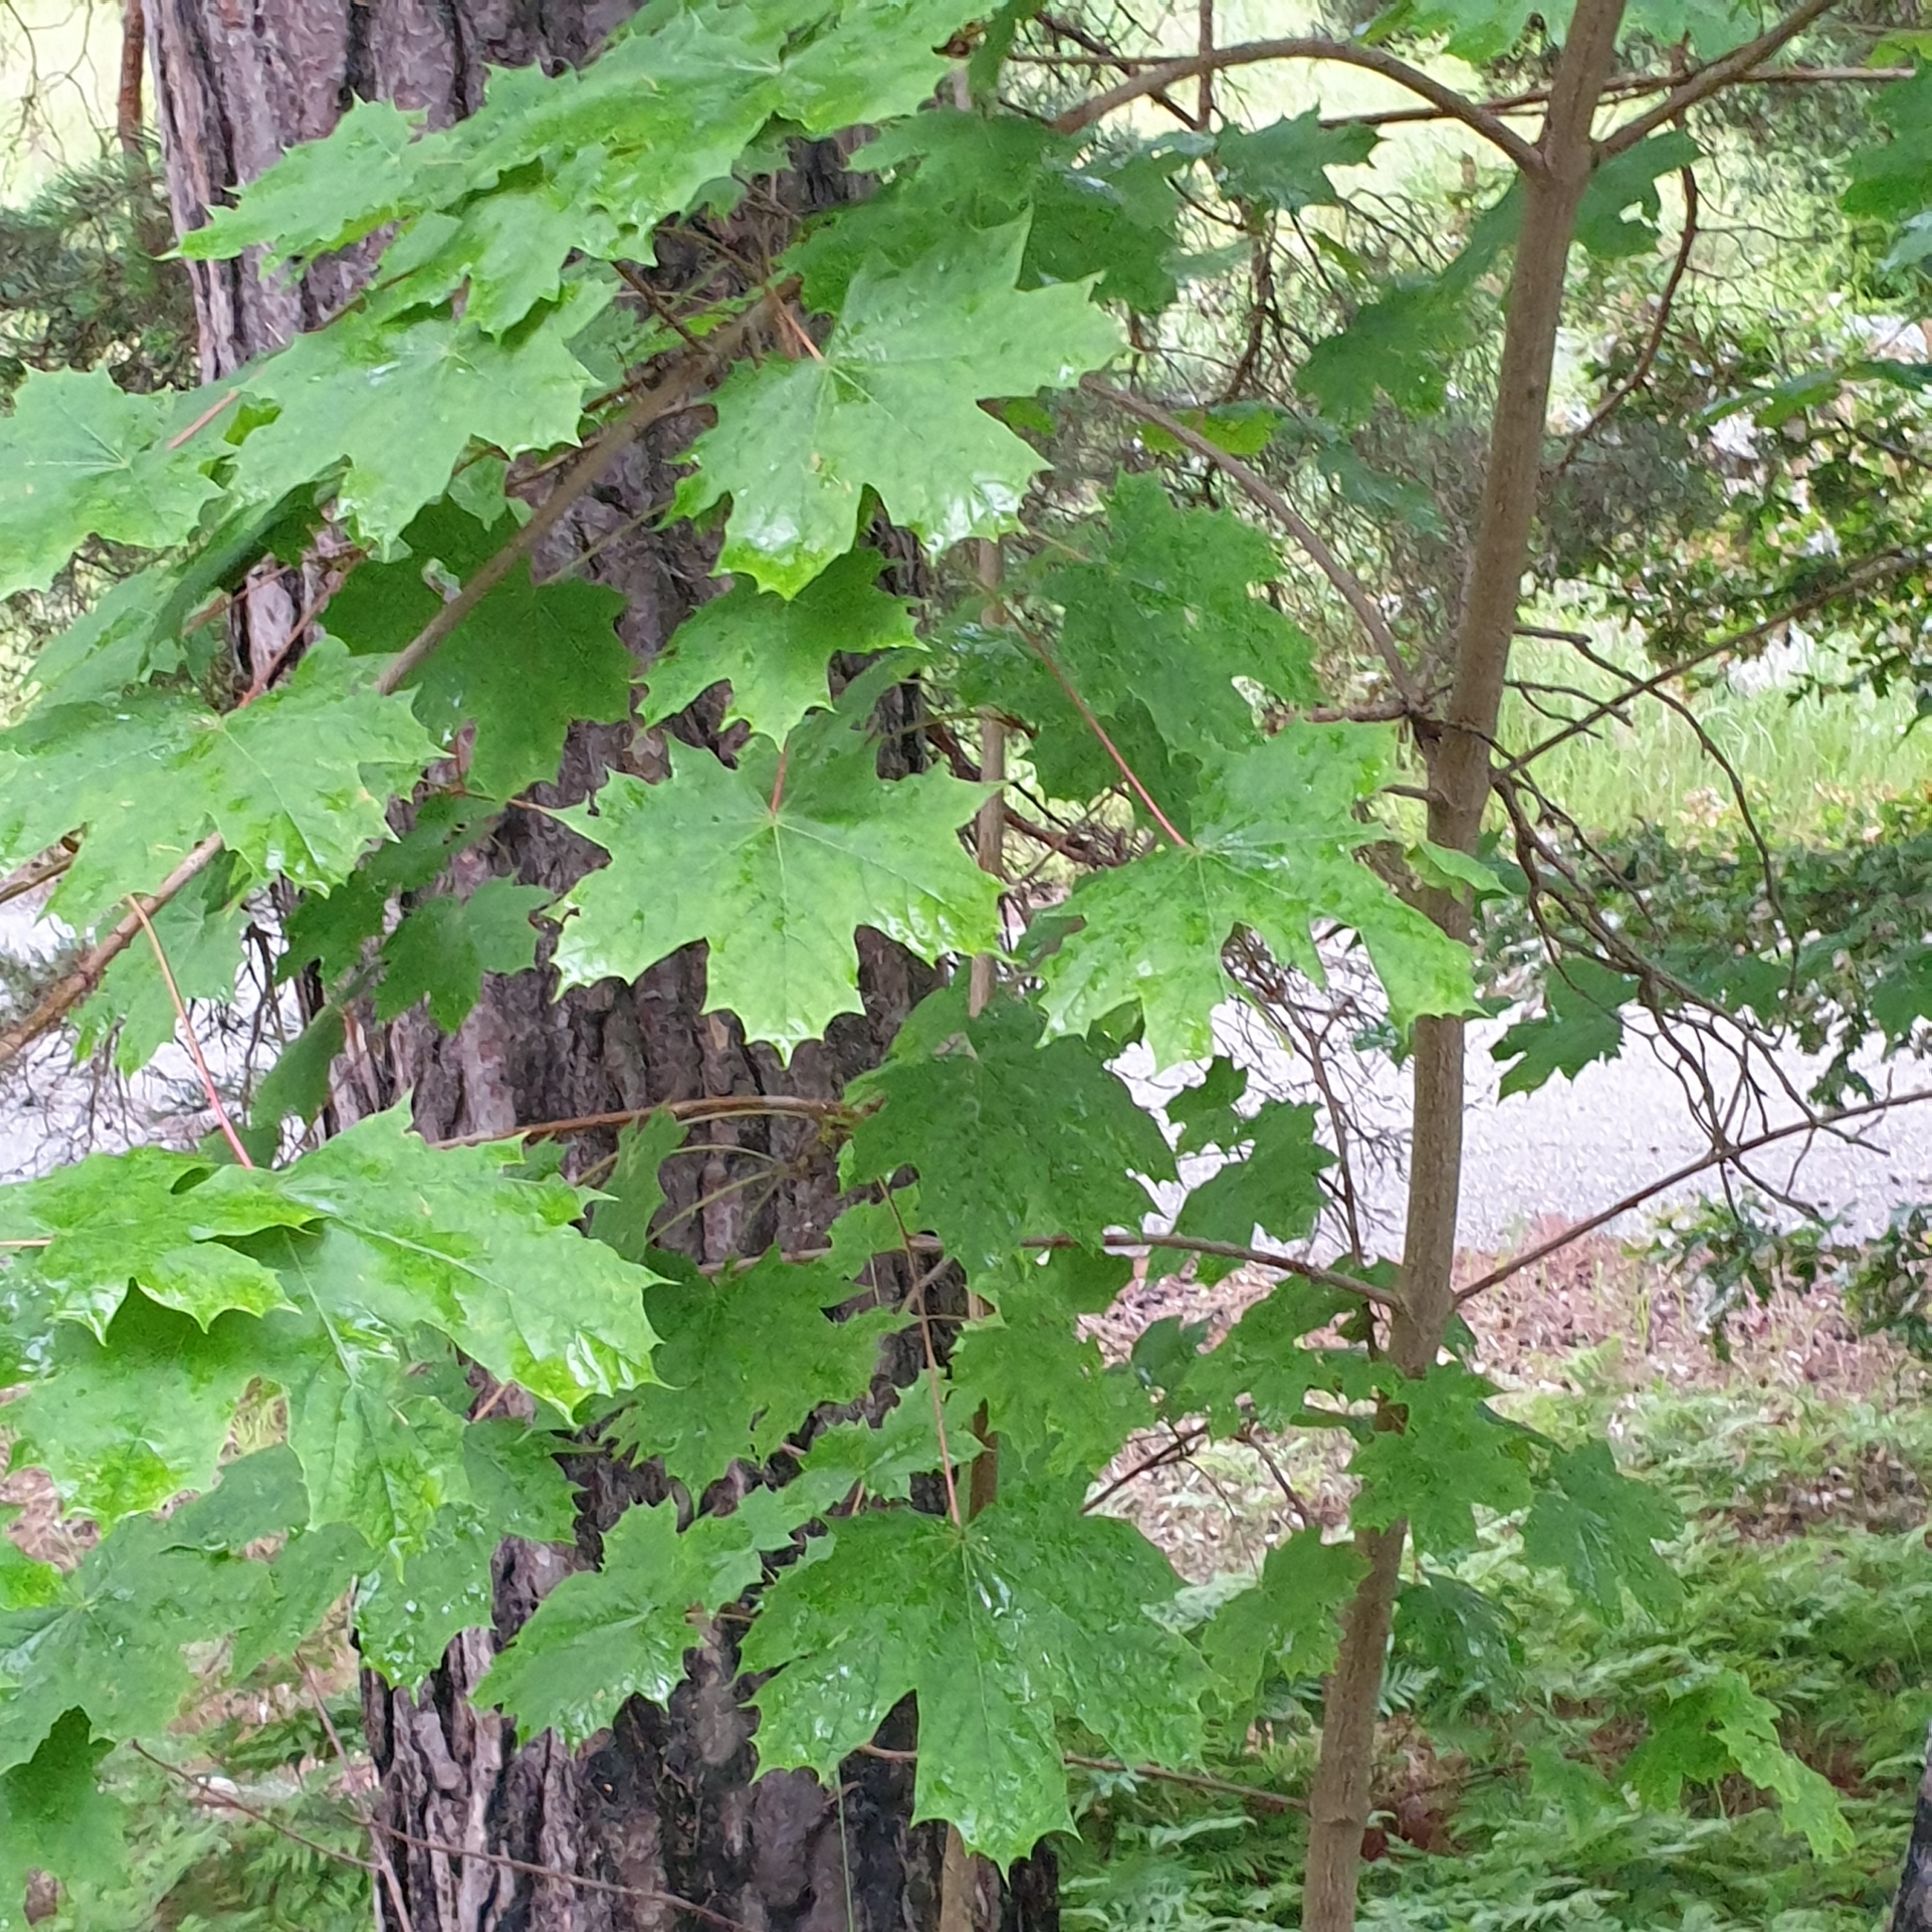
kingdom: Plantae
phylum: Tracheophyta
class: Magnoliopsida
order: Sapindales
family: Sapindaceae
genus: Acer
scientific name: Acer platanoides
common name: Norway maple
